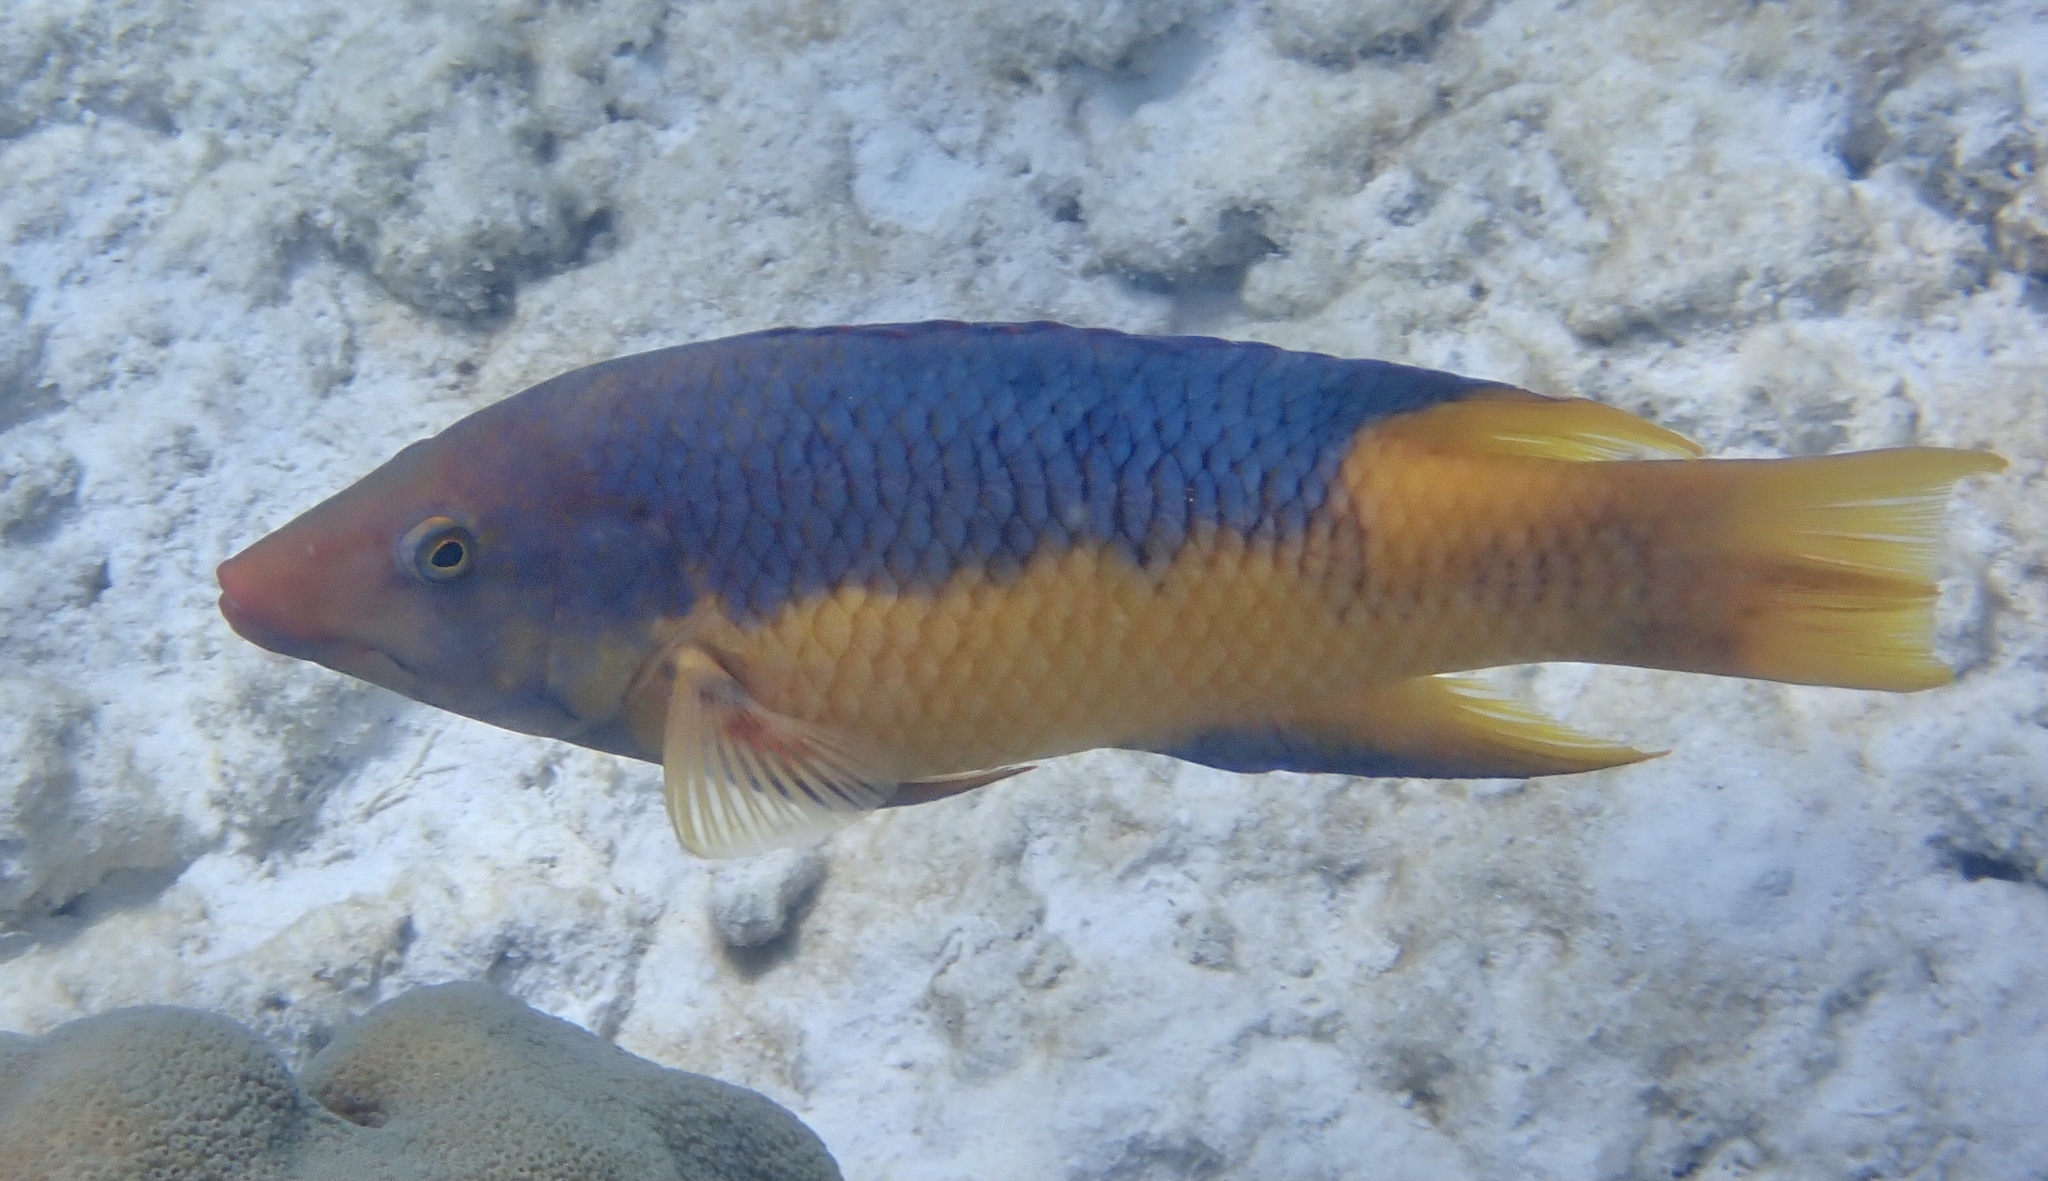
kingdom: Animalia
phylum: Chordata
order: Perciformes
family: Labridae
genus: Bodianus
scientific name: Bodianus rufus
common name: Spanish hogfish
